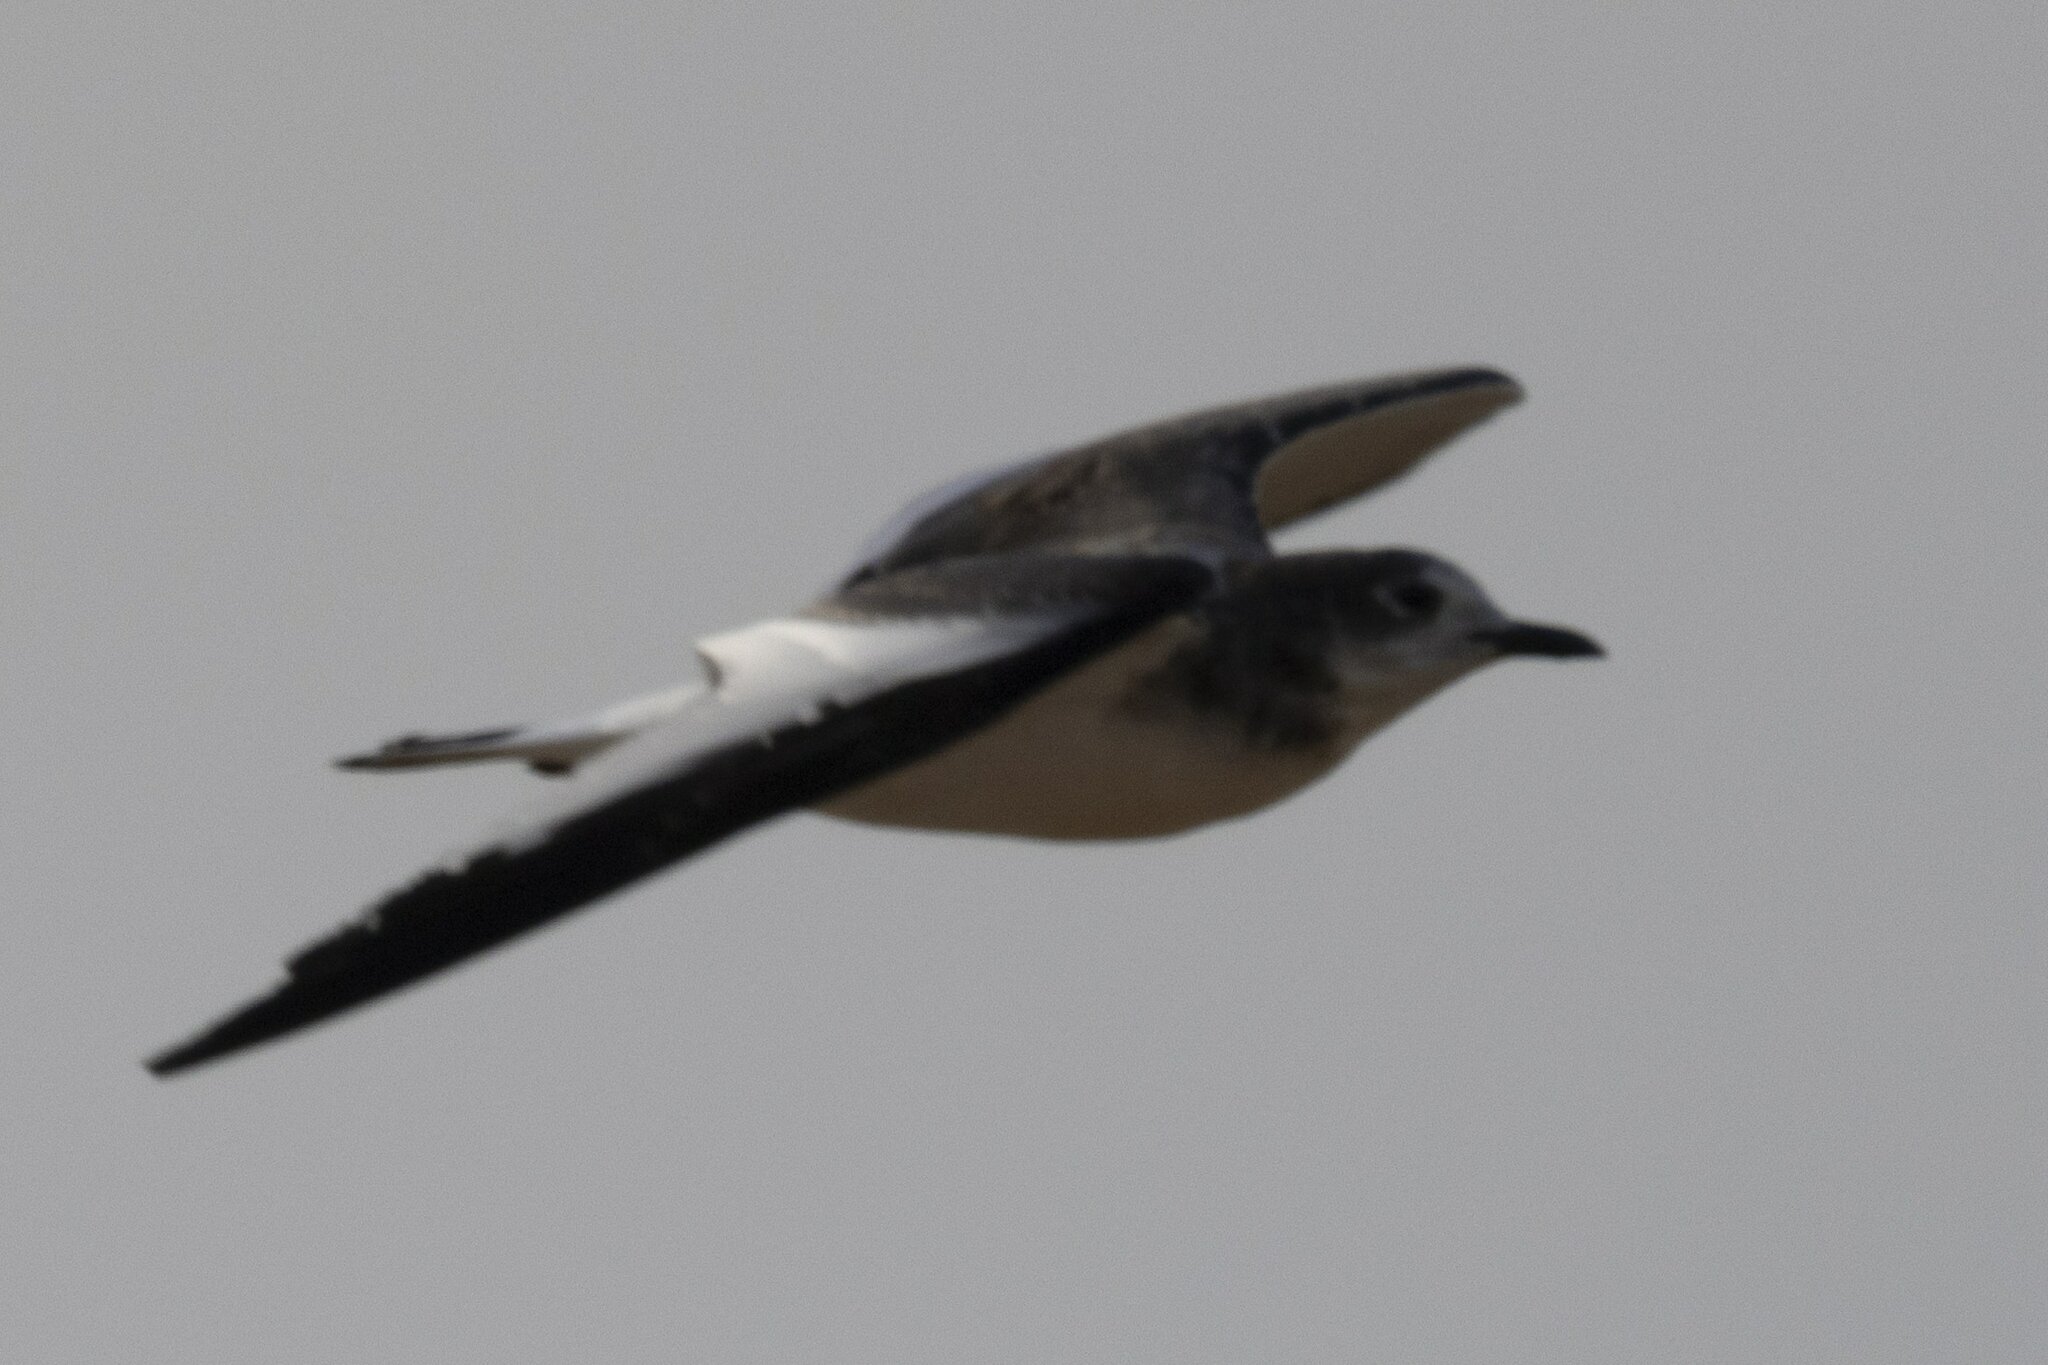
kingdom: Animalia
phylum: Chordata
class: Aves
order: Charadriiformes
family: Laridae
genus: Xema
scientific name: Xema sabini
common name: Sabine's gull
